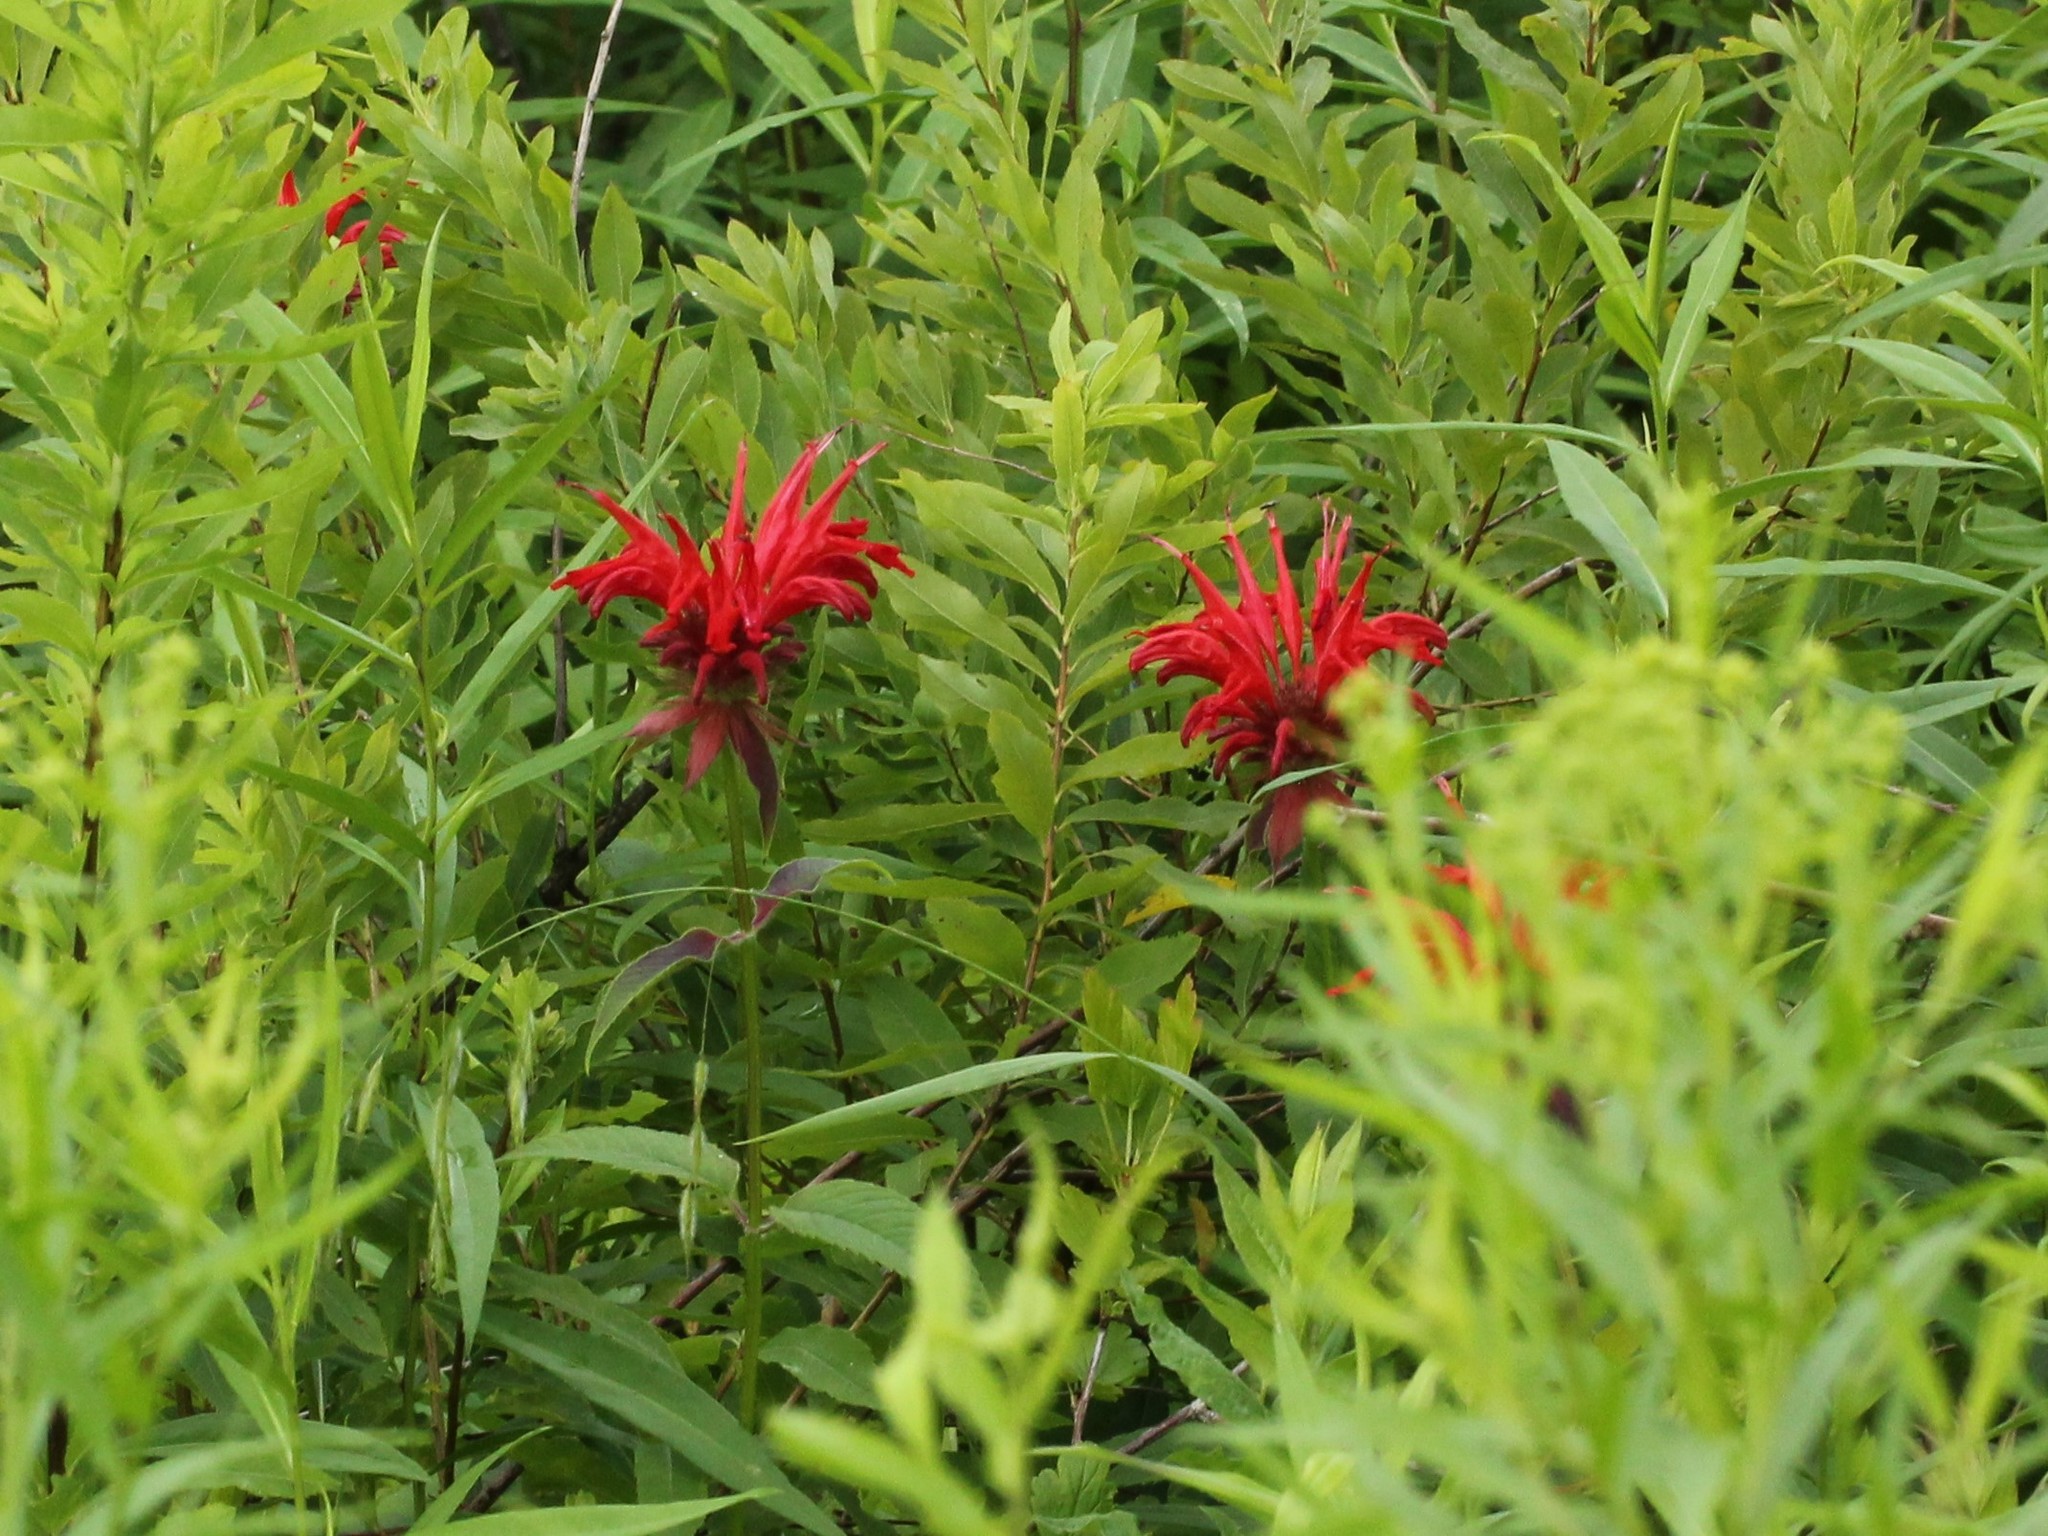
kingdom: Plantae
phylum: Tracheophyta
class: Magnoliopsida
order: Lamiales
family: Lamiaceae
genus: Monarda
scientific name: Monarda didyma
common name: Beebalm
